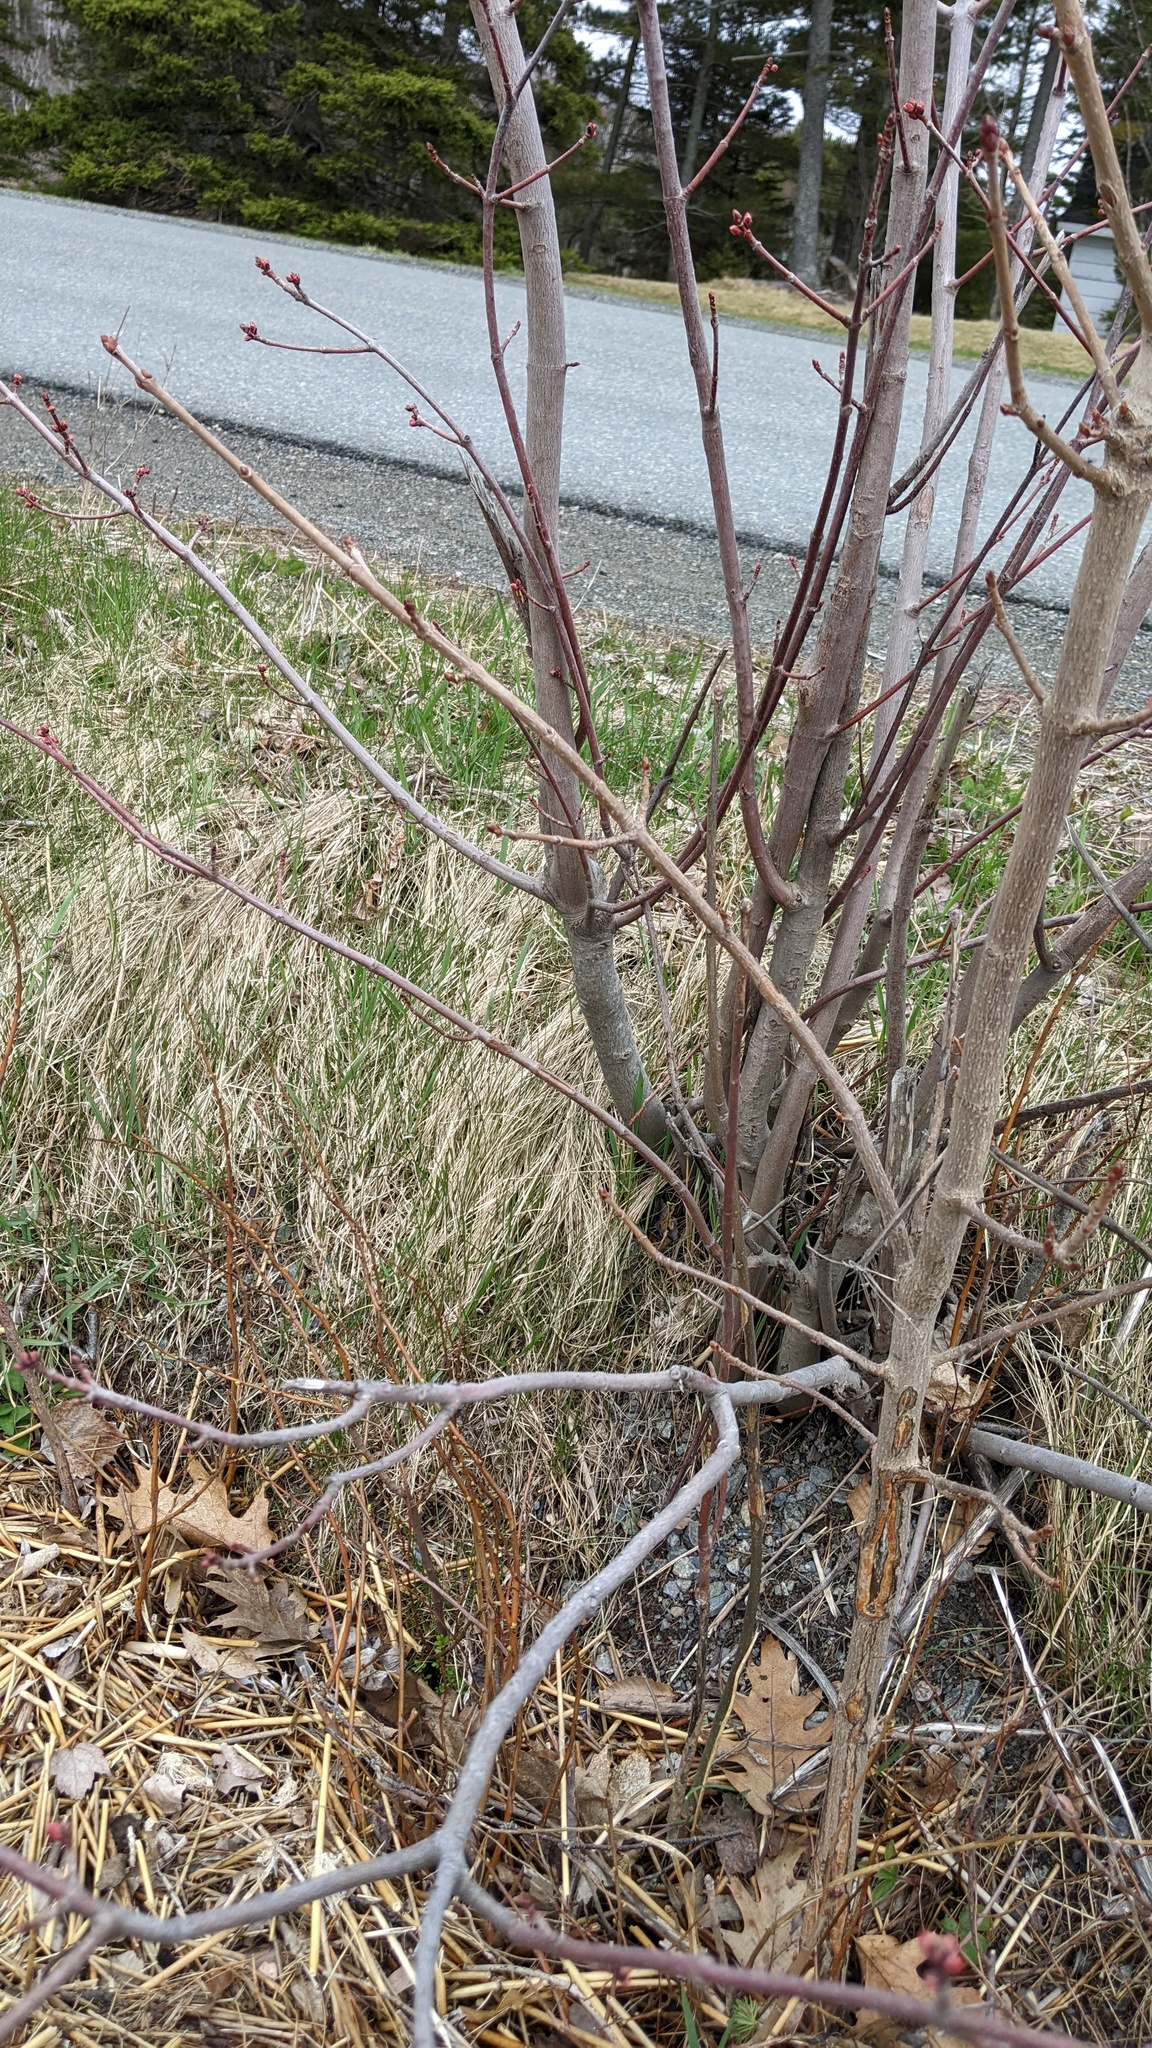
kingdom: Plantae
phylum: Tracheophyta
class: Magnoliopsida
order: Sapindales
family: Sapindaceae
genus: Acer
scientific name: Acer rubrum
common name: Red maple
